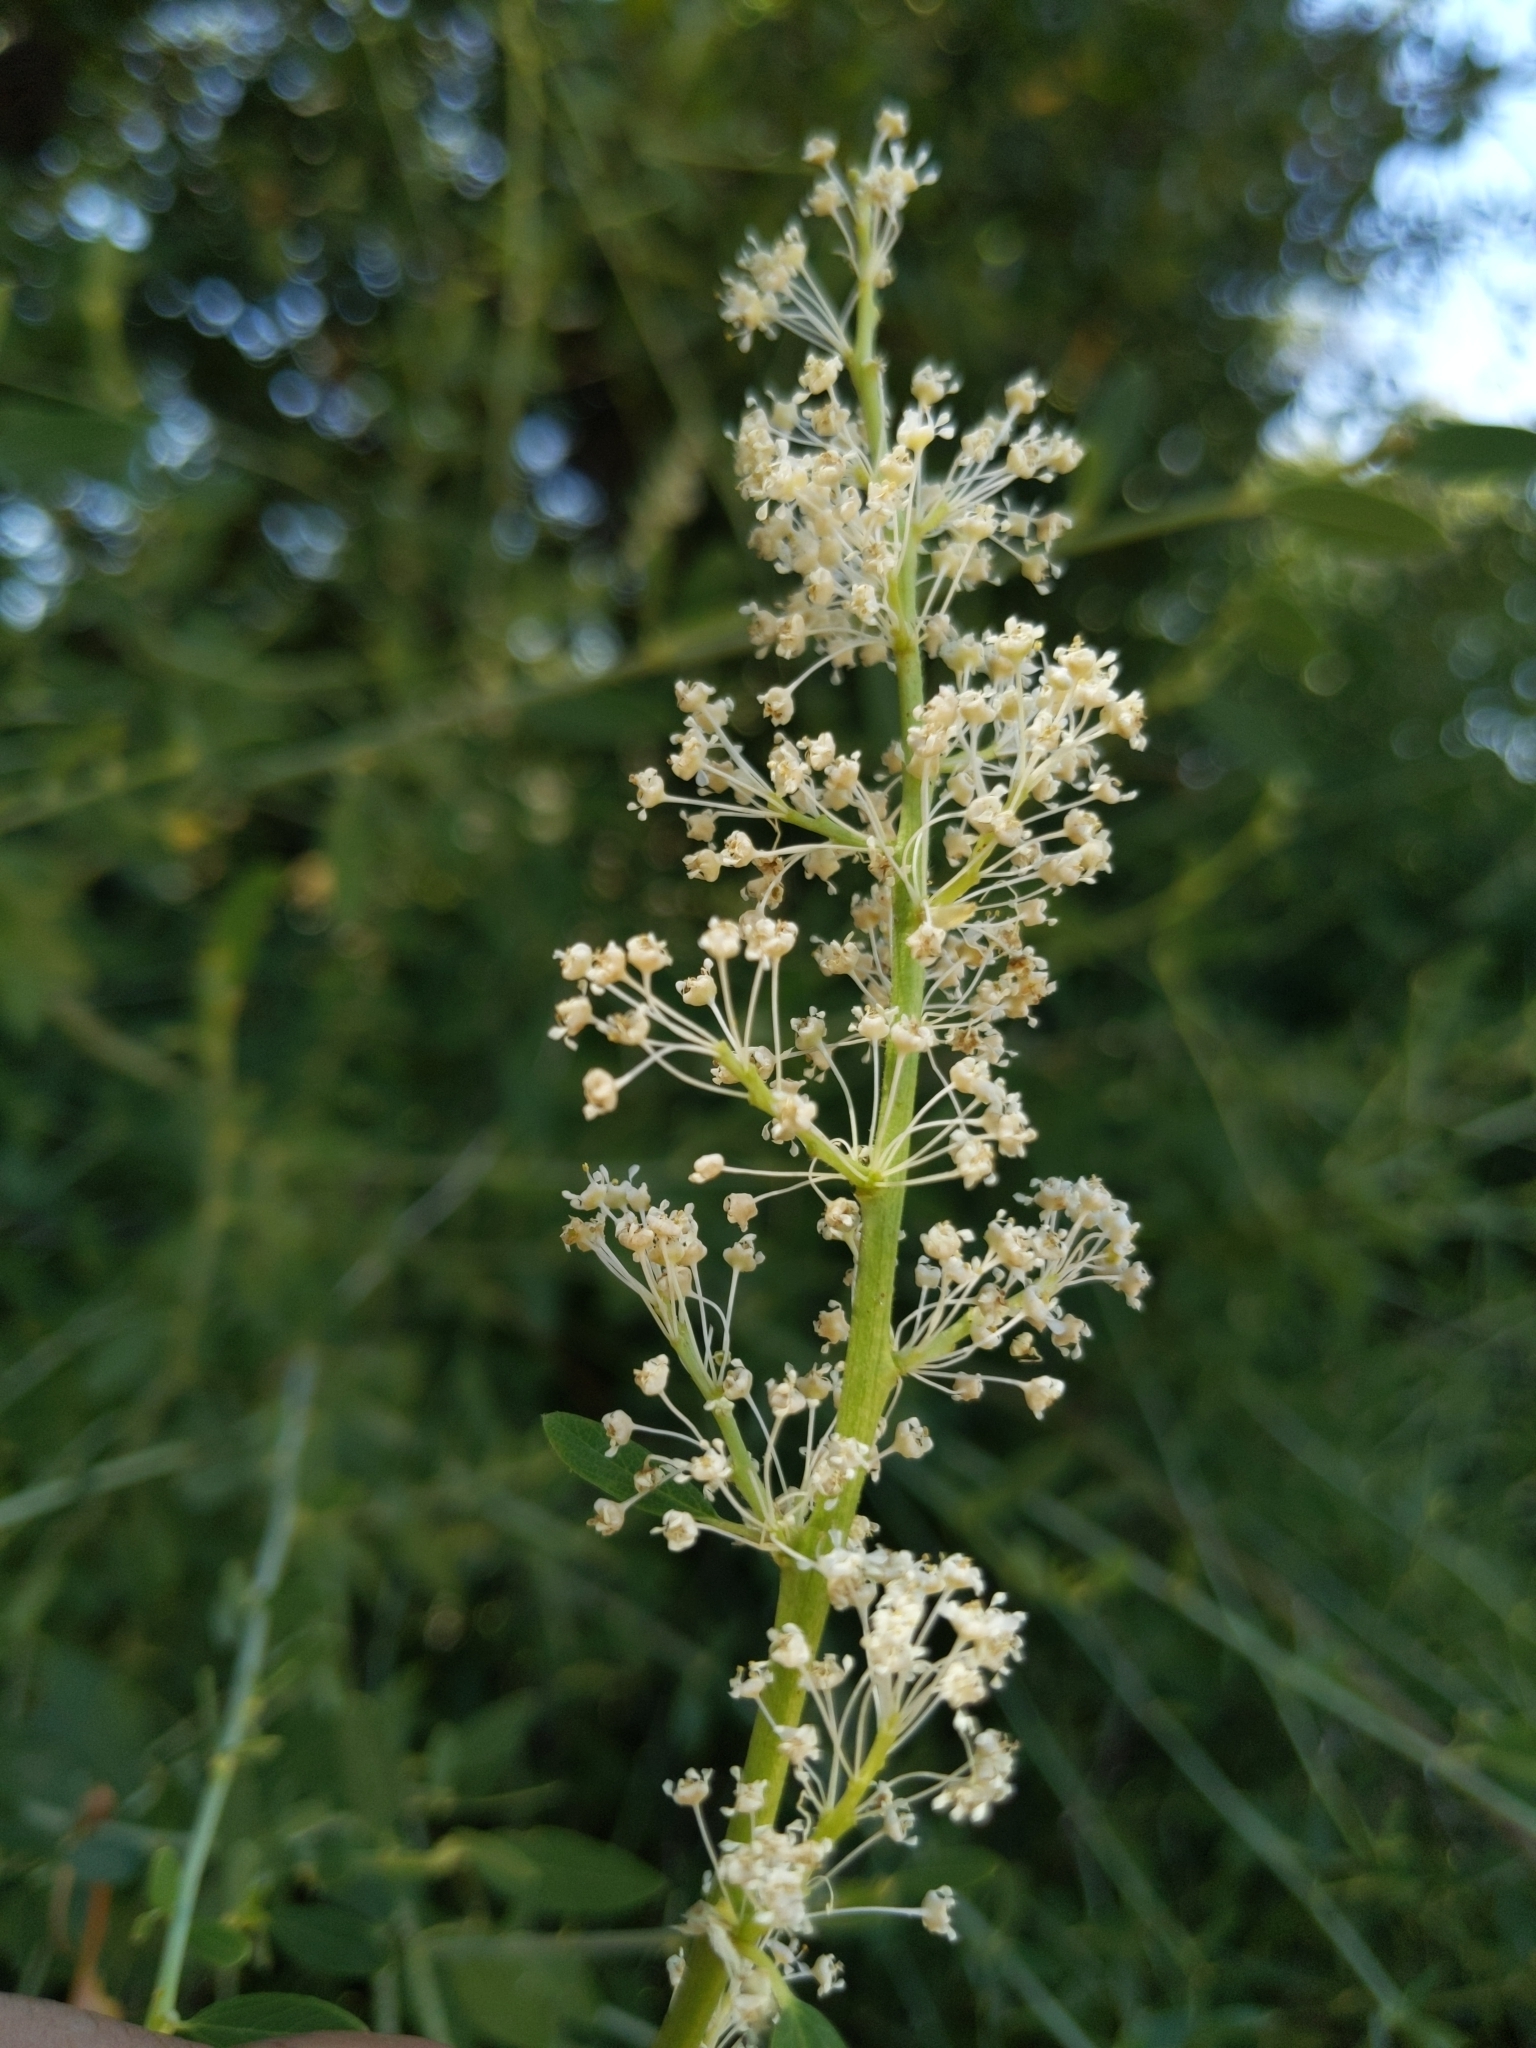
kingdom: Plantae
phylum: Tracheophyta
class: Magnoliopsida
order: Rosales
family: Rhamnaceae
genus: Ceanothus
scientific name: Ceanothus integerrimus
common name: Deerbrush ceanothus
